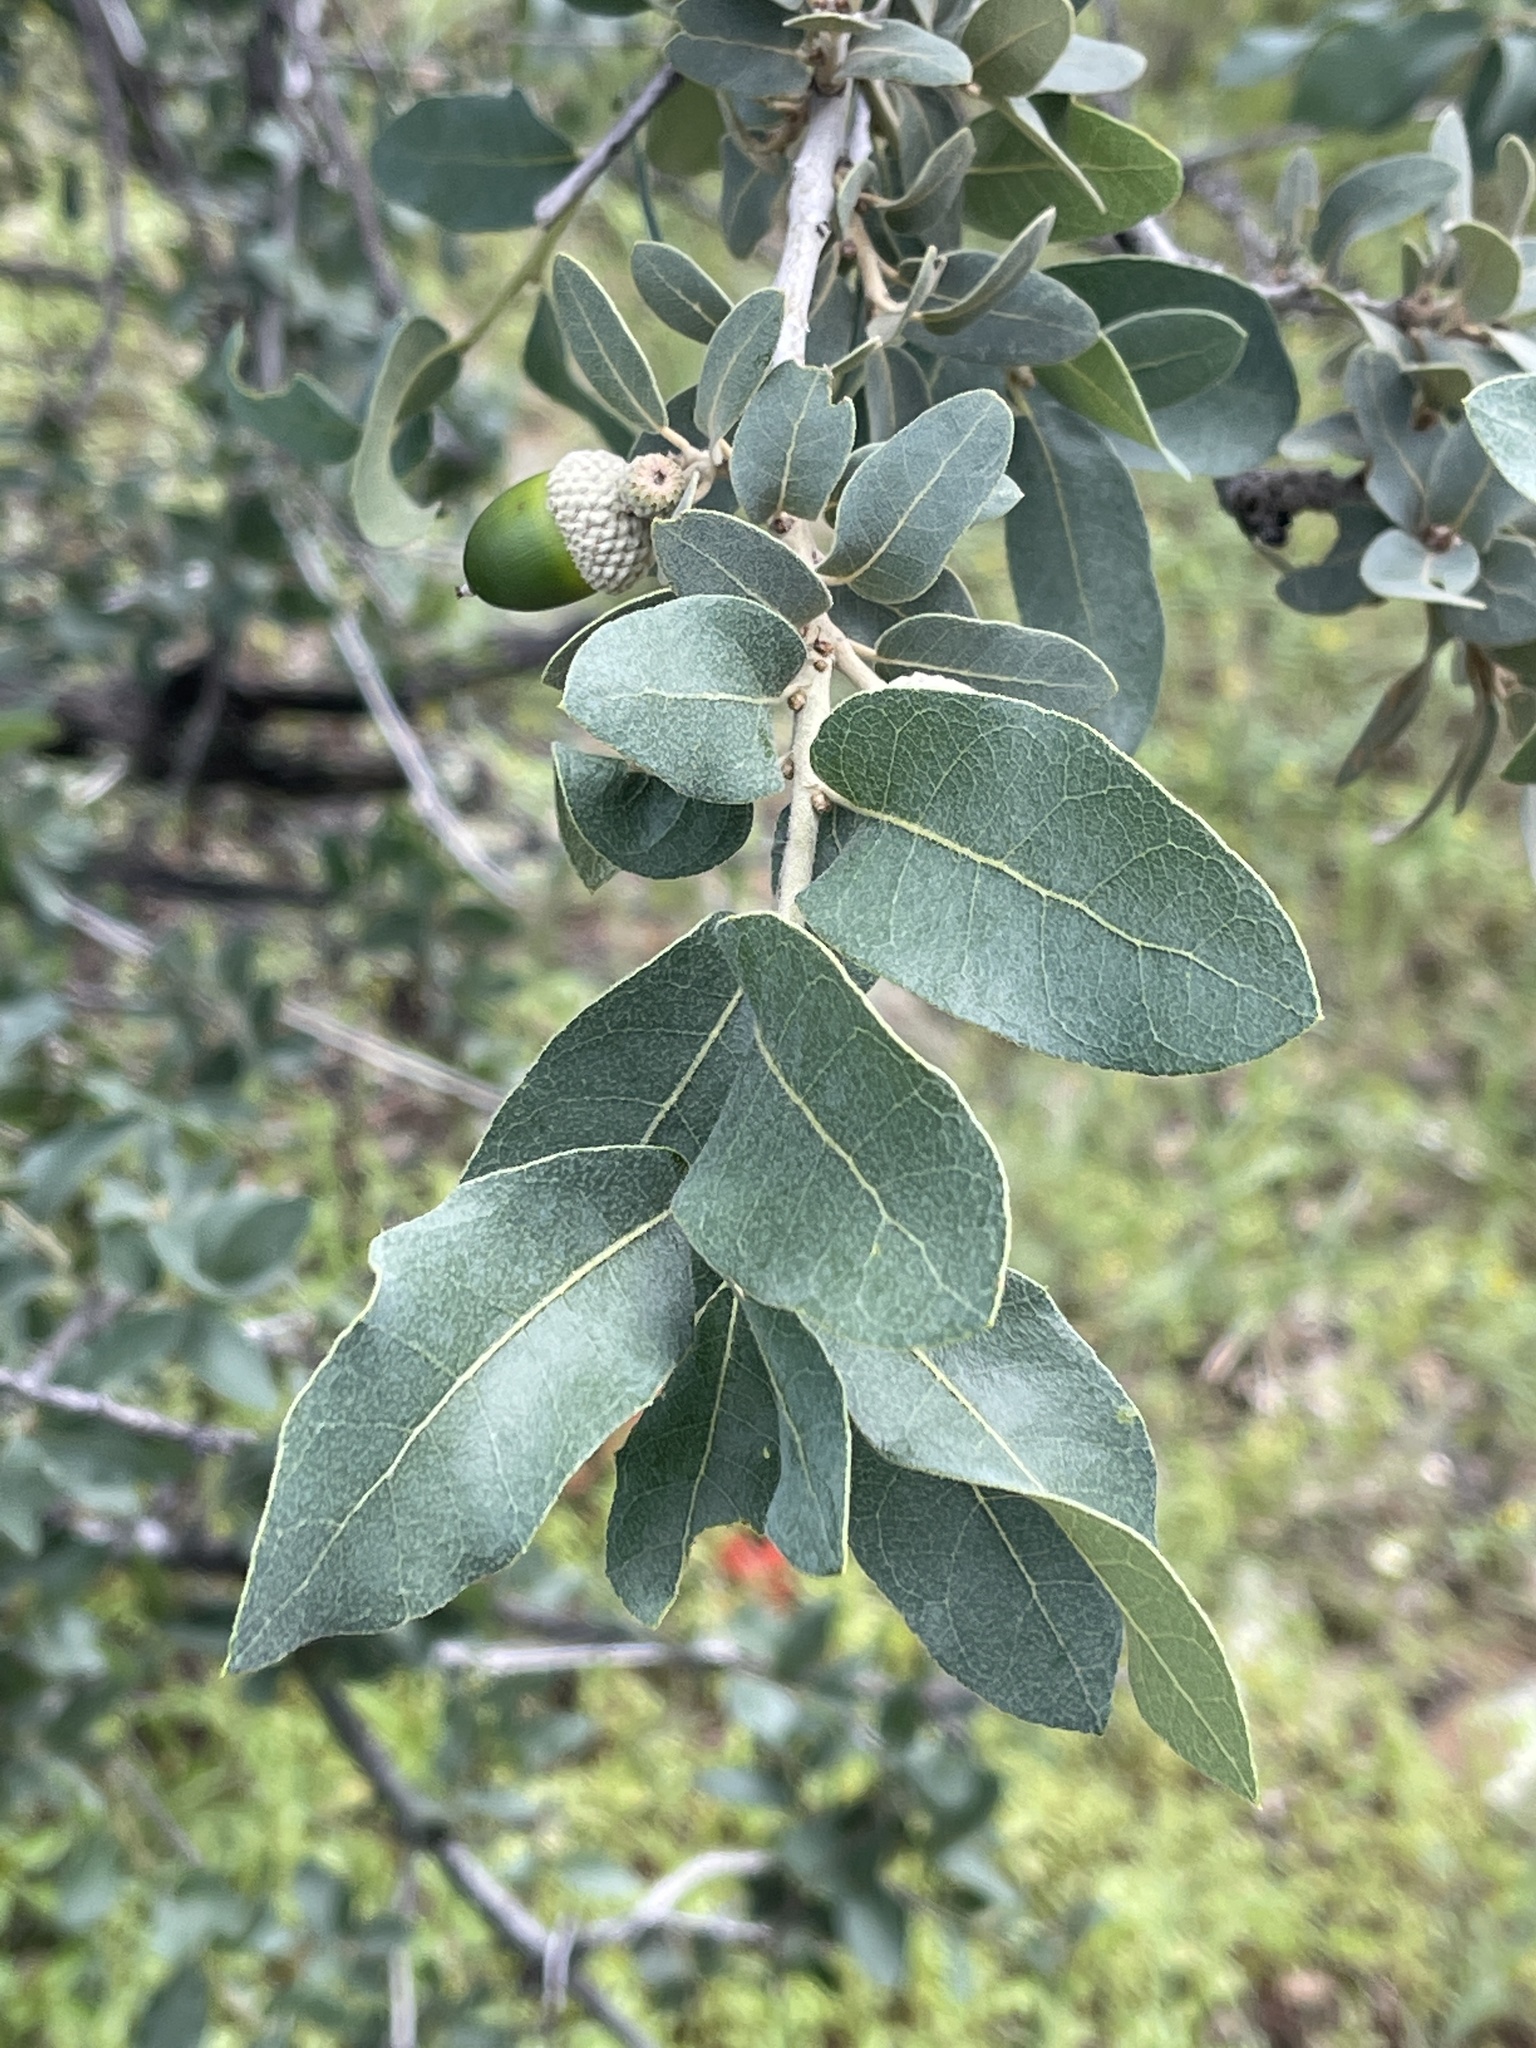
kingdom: Plantae
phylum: Tracheophyta
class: Magnoliopsida
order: Fagales
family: Fagaceae
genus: Quercus
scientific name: Quercus grisea
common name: Gray oak
